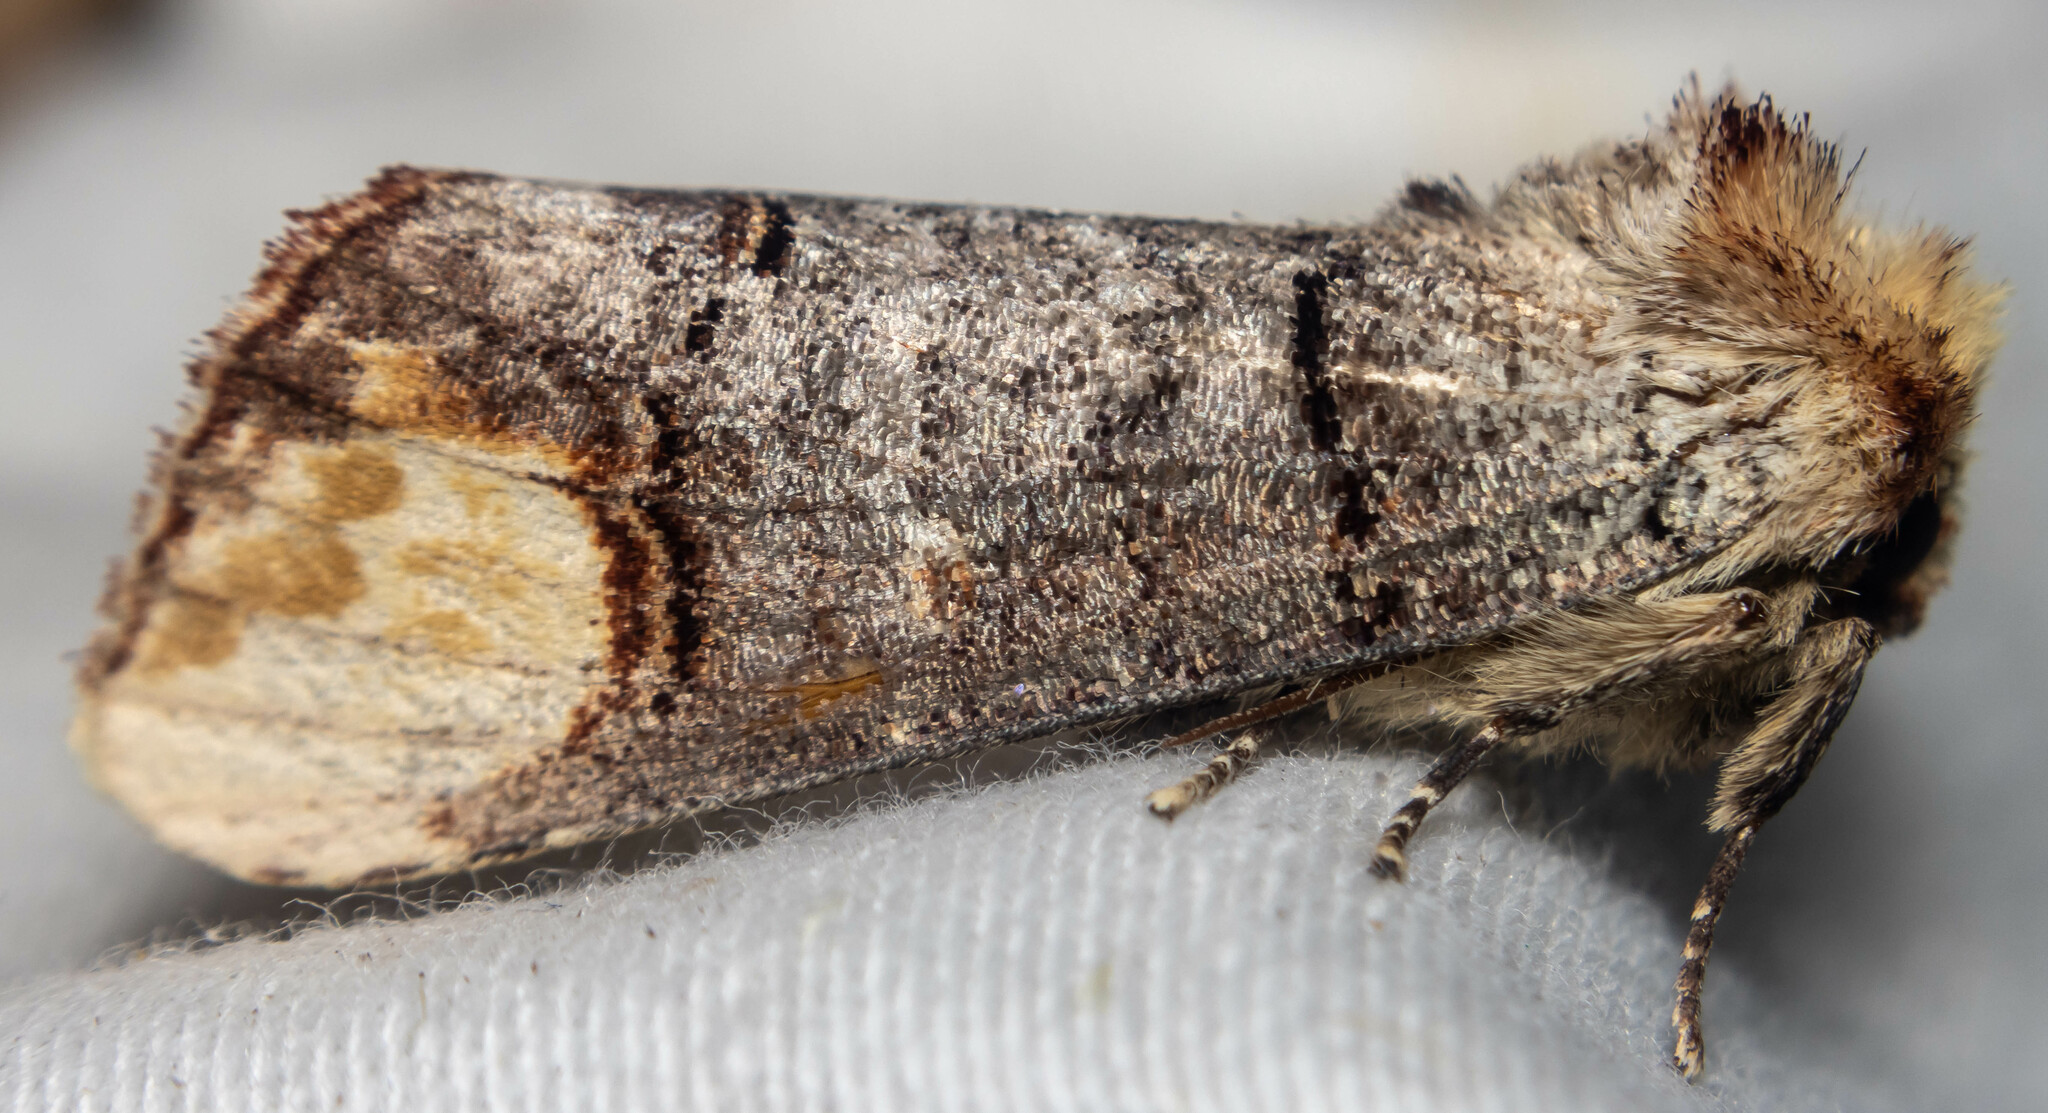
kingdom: Animalia
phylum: Arthropoda
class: Insecta
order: Lepidoptera
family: Notodontidae
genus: Phalera
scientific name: Phalera bucephala
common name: Buff-tip
